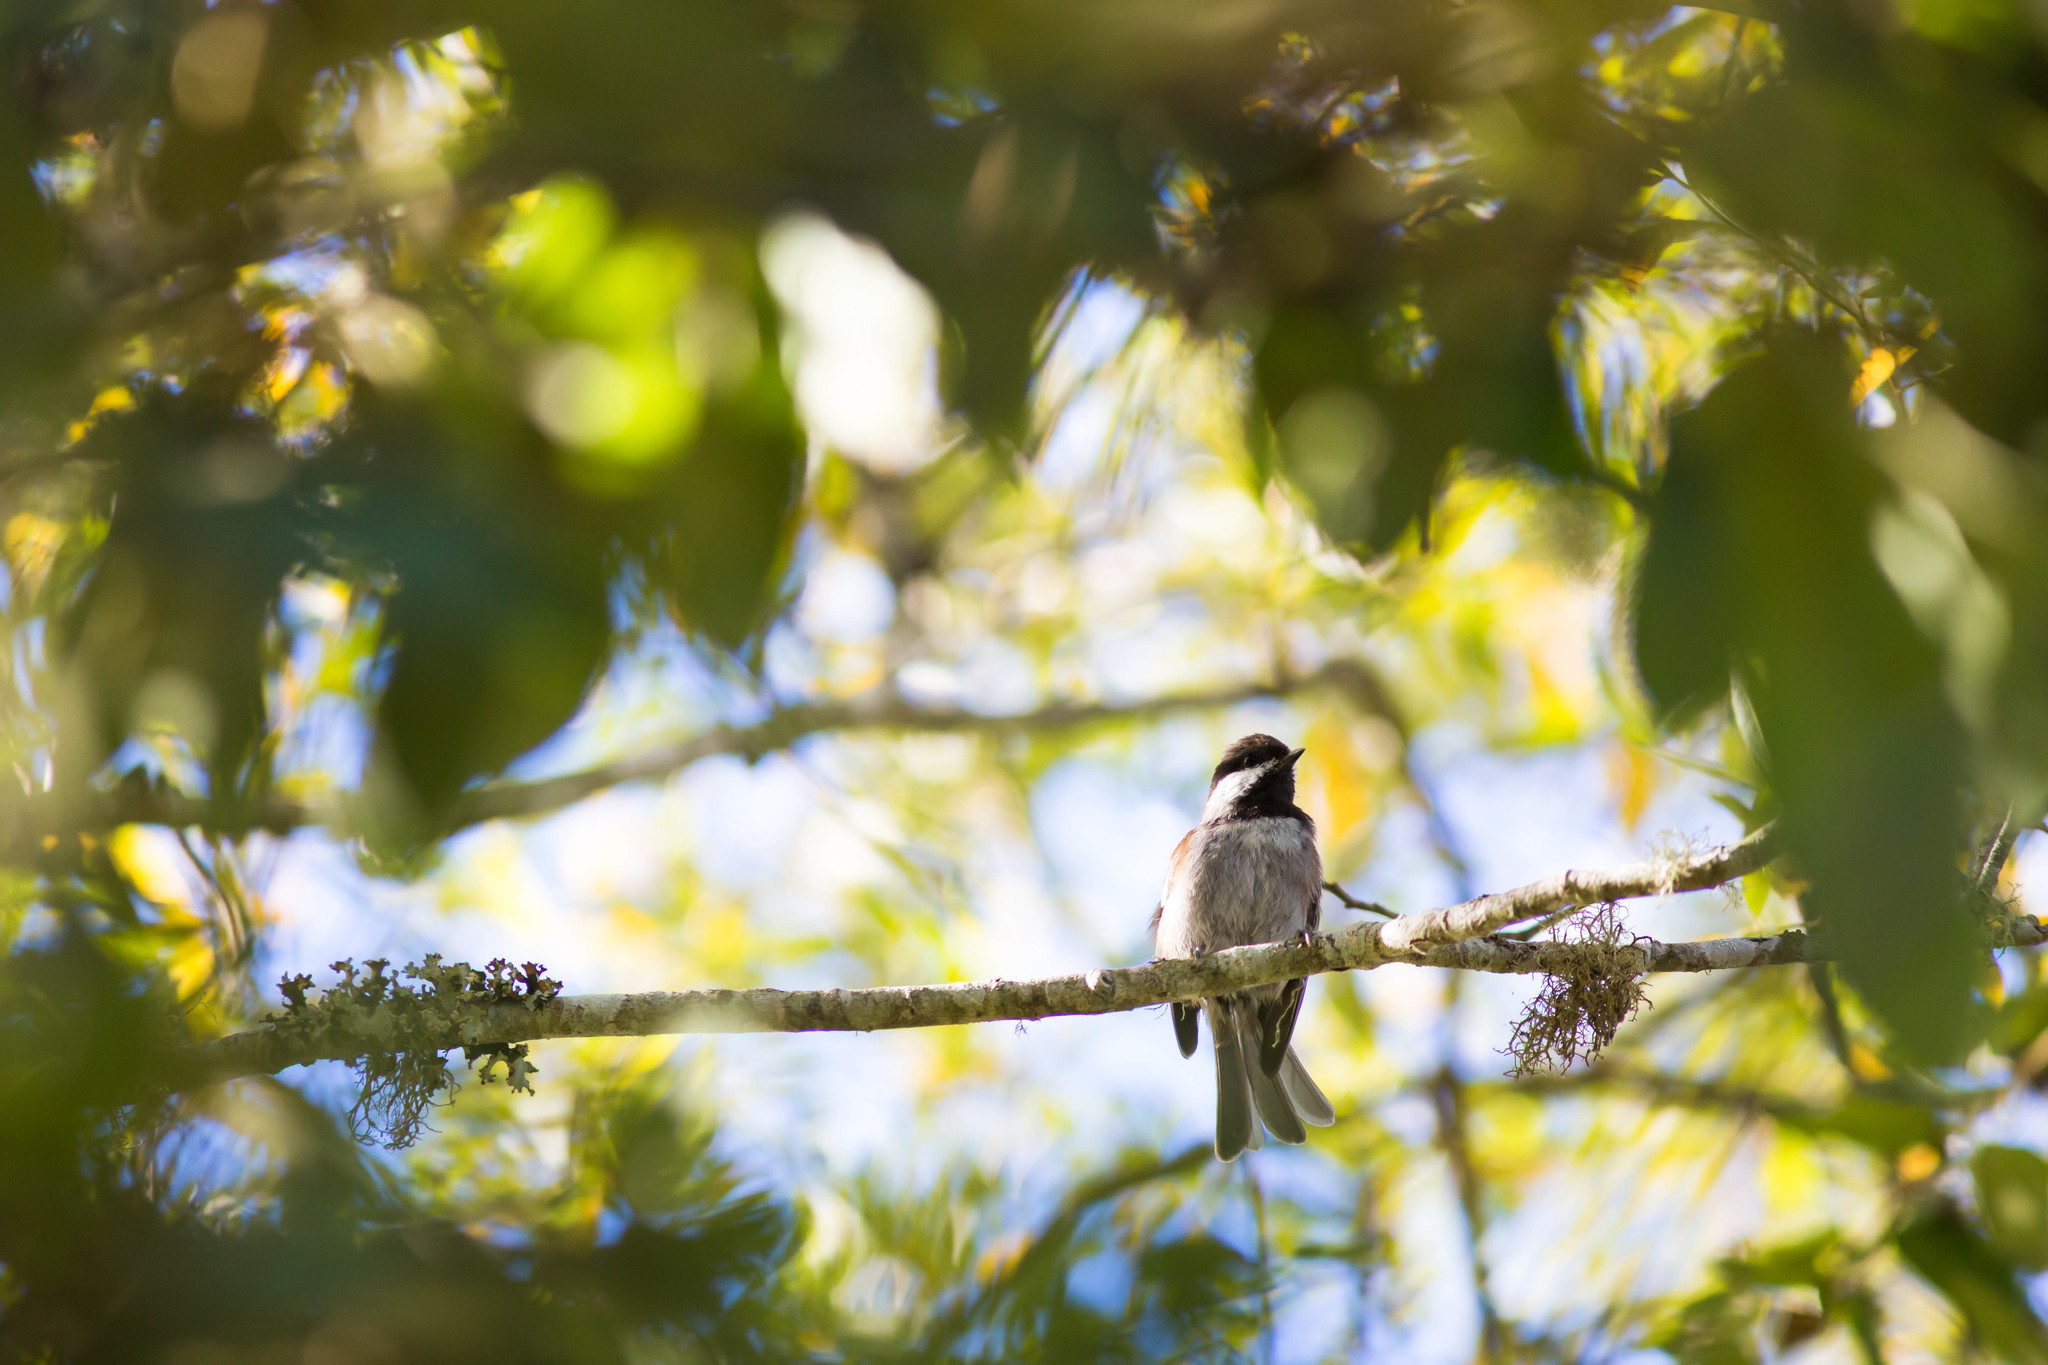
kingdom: Animalia
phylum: Chordata
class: Aves
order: Passeriformes
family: Paridae
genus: Poecile
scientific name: Poecile rufescens
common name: Chestnut-backed chickadee
